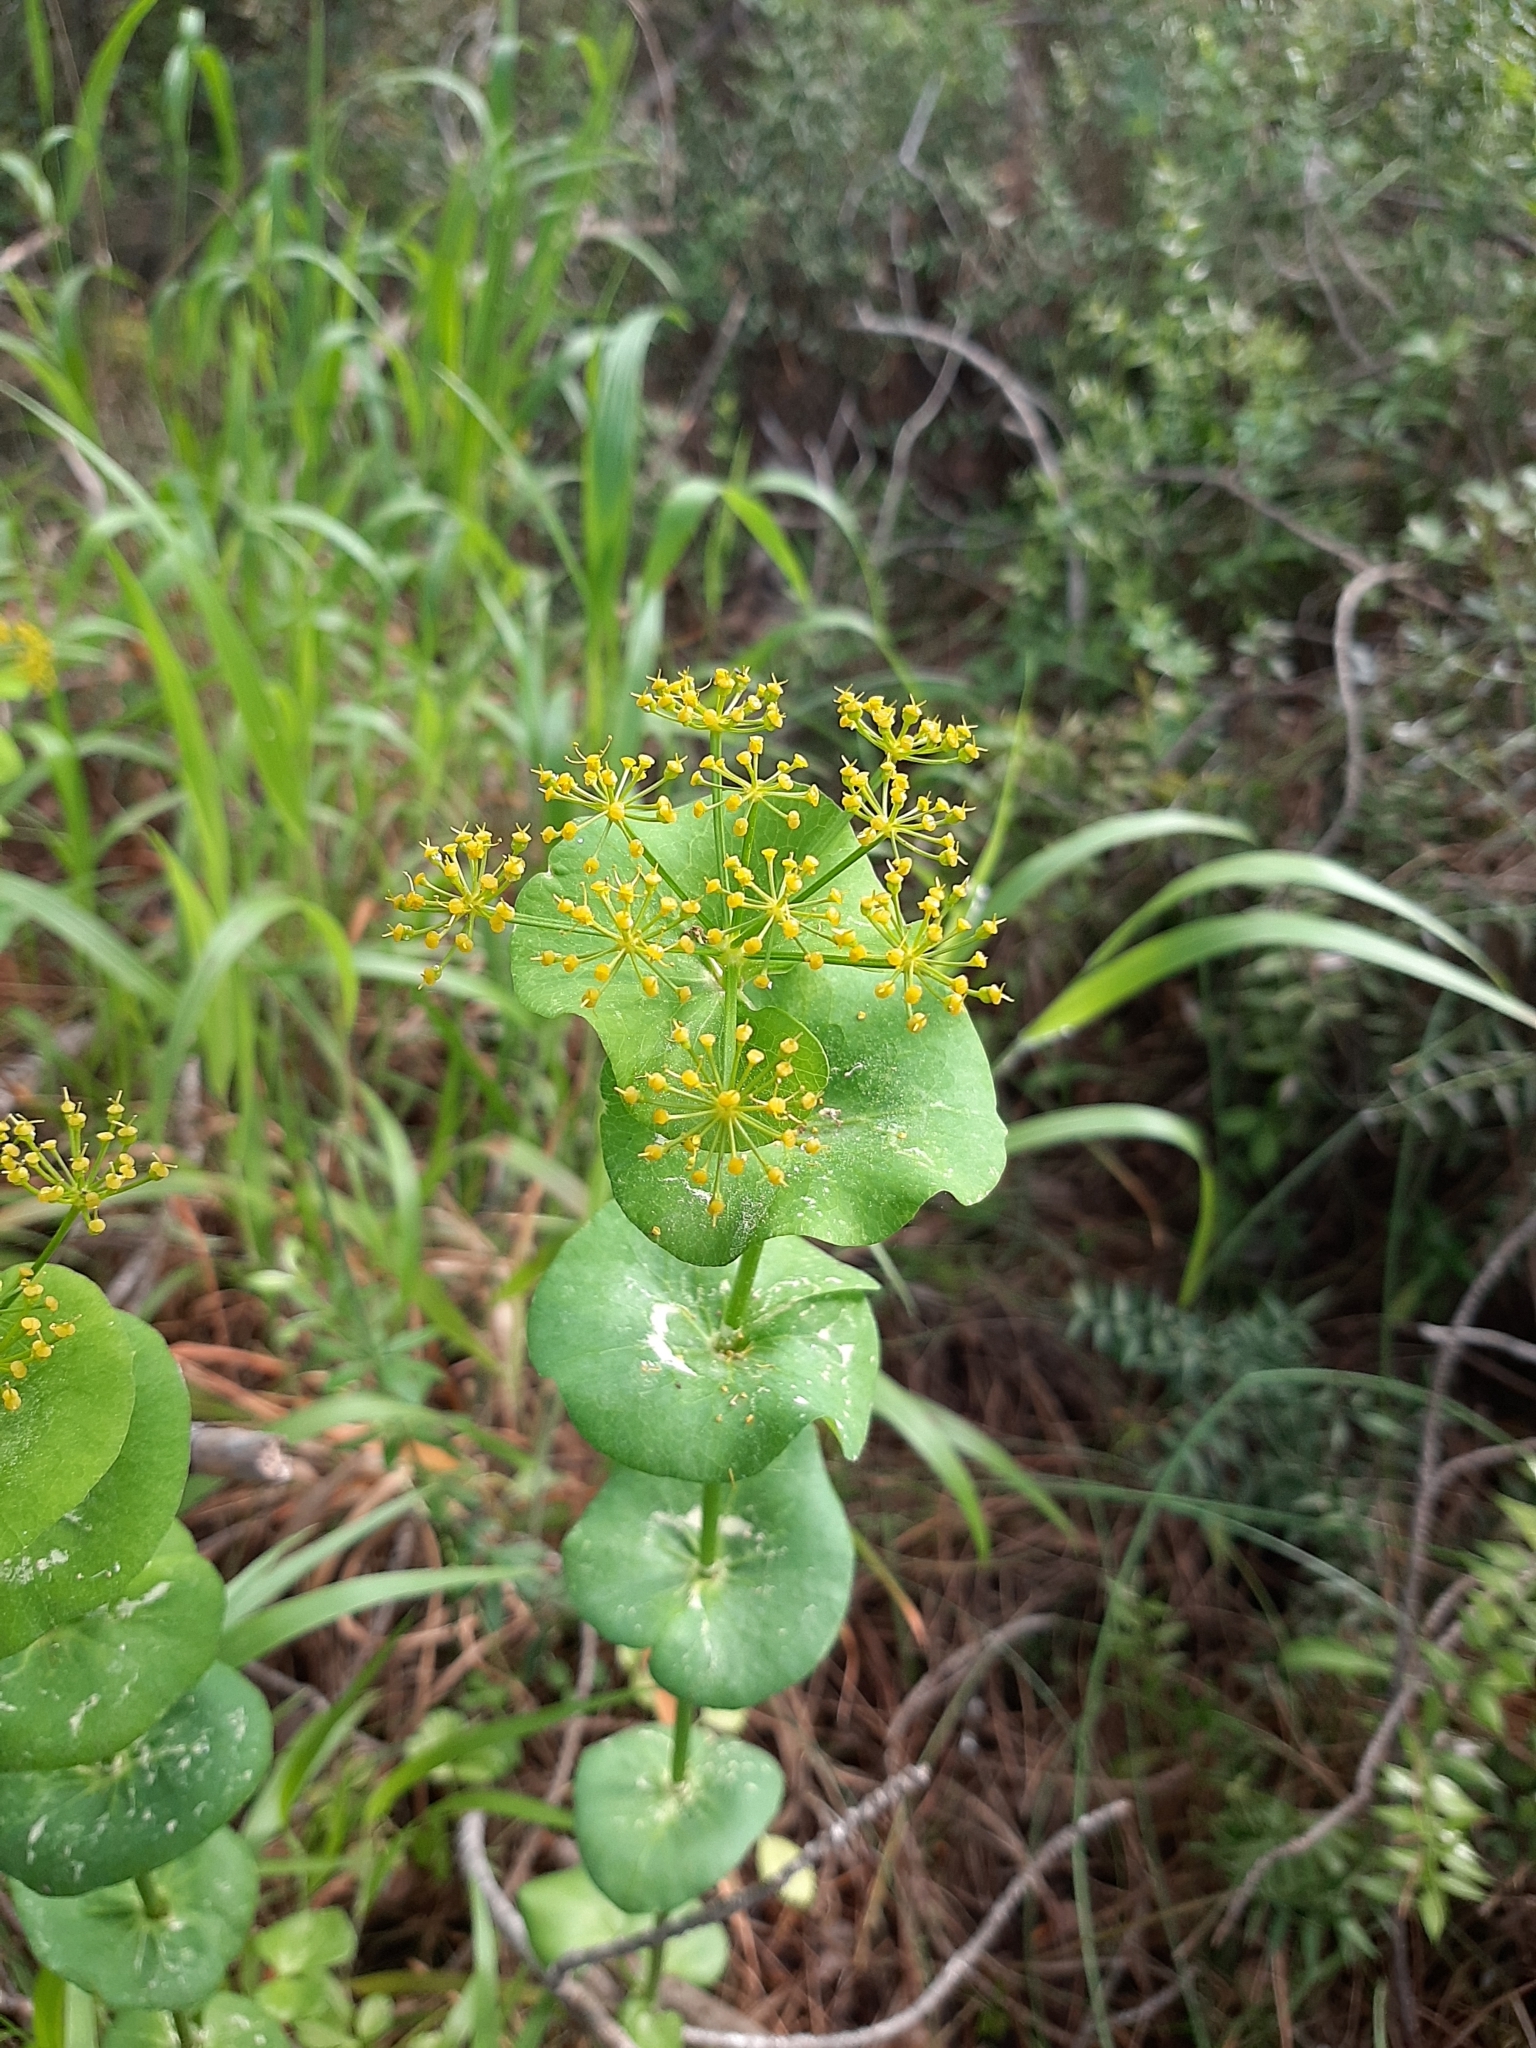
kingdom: Plantae
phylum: Tracheophyta
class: Magnoliopsida
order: Apiales
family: Apiaceae
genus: Smyrnium
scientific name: Smyrnium perfoliatum
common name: Perfoliate alexanders
